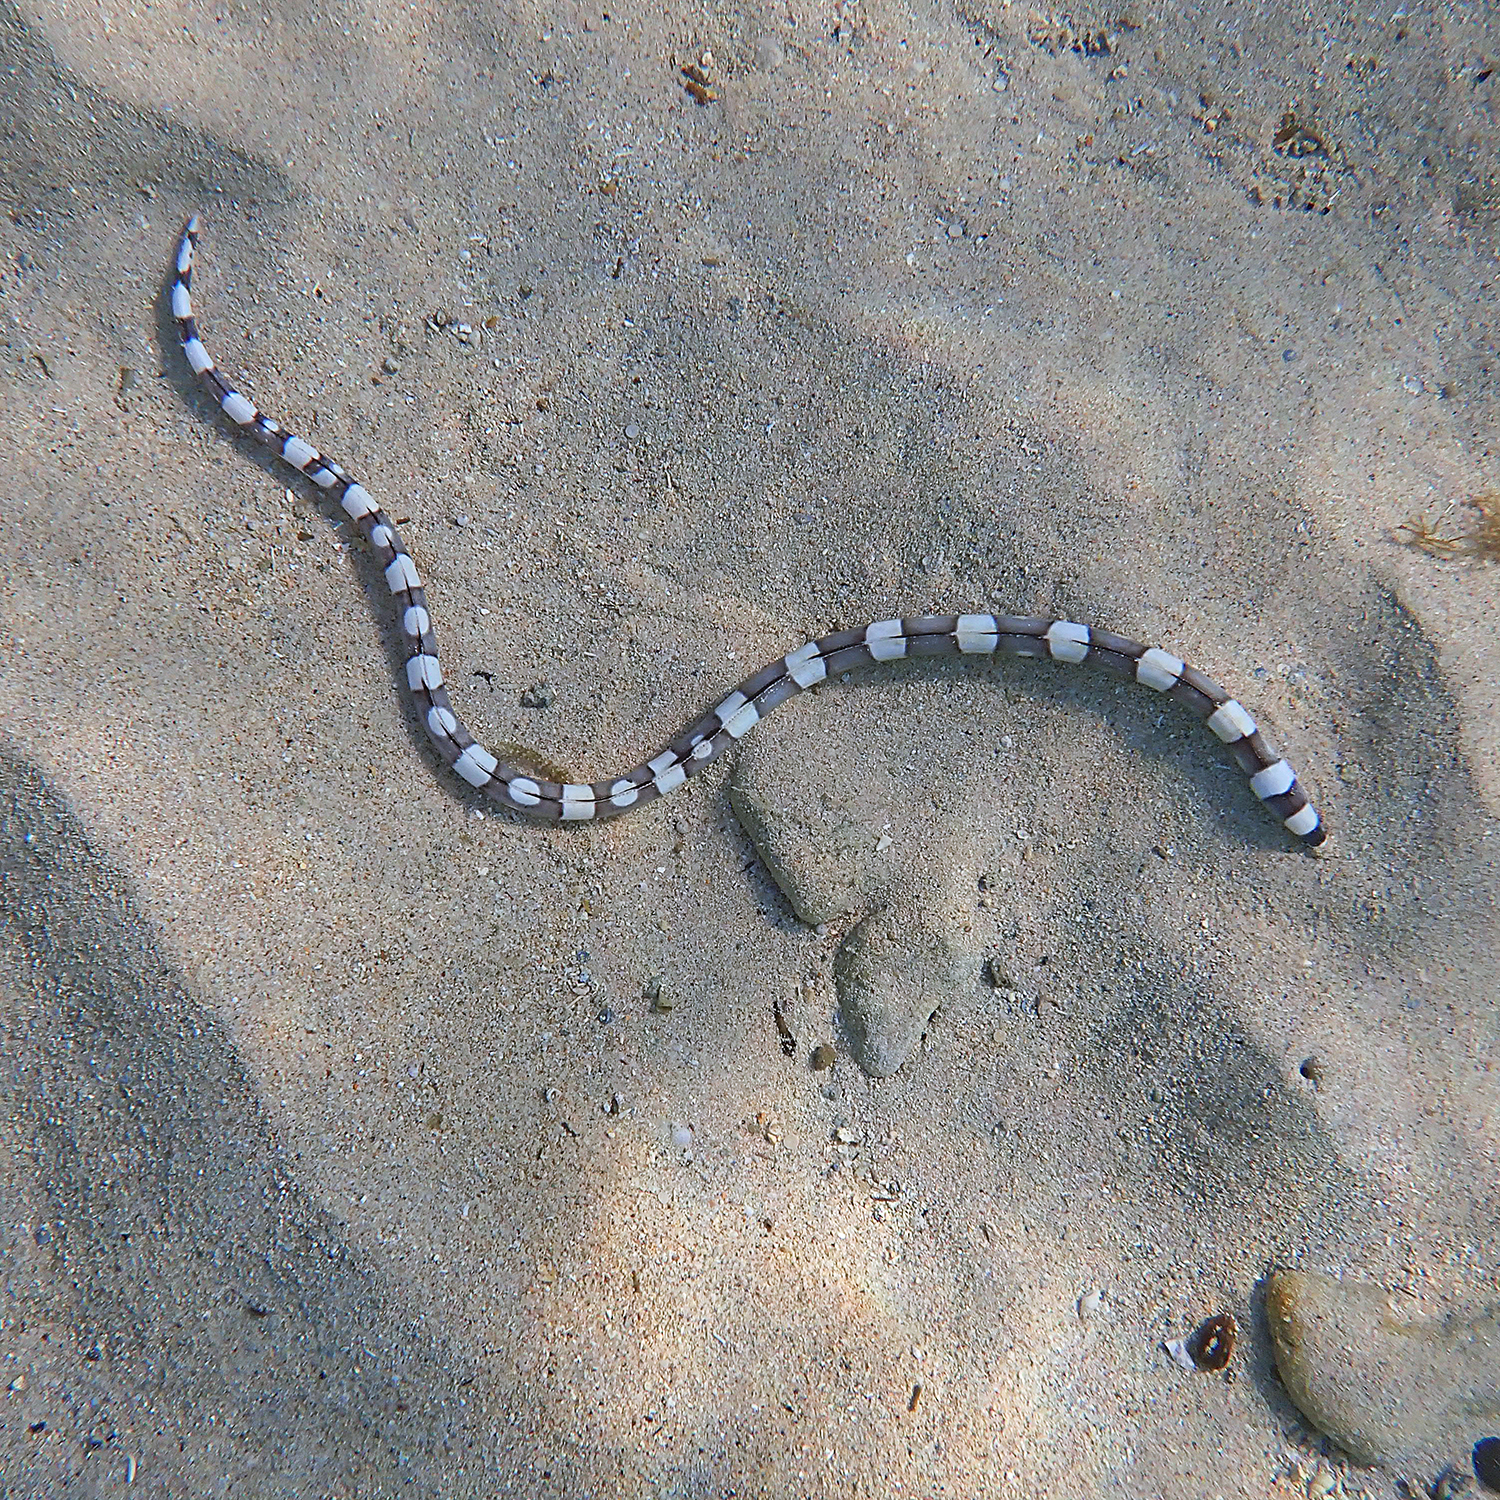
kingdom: Animalia
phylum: Chordata
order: Anguilliformes
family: Ophichthidae
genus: Leiuranus
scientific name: Leiuranus versicolor
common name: Convict snake eel
